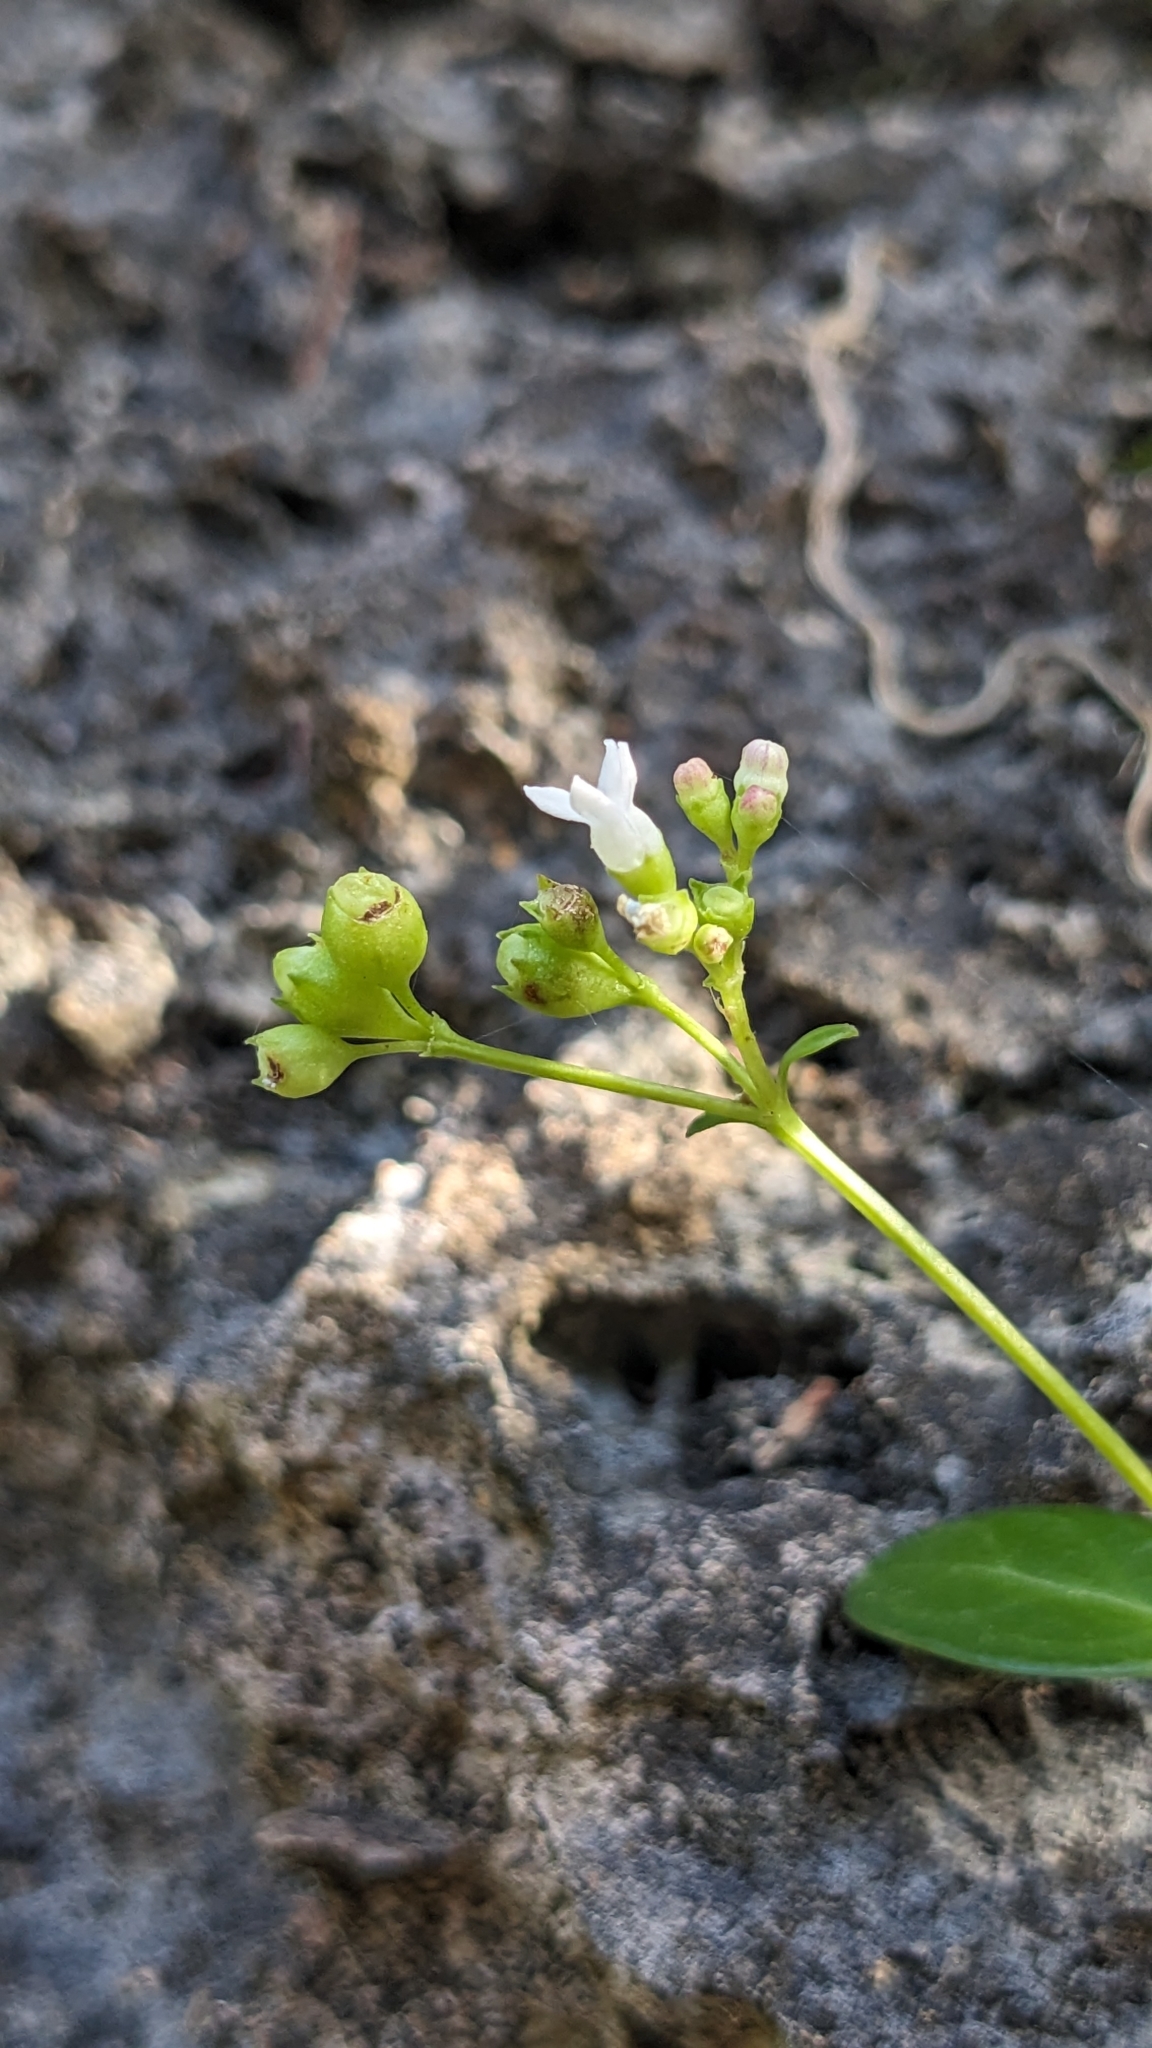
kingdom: Plantae
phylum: Tracheophyta
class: Magnoliopsida
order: Gentianales
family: Rubiaceae
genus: Leptopetalum
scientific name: Leptopetalum racemosum
